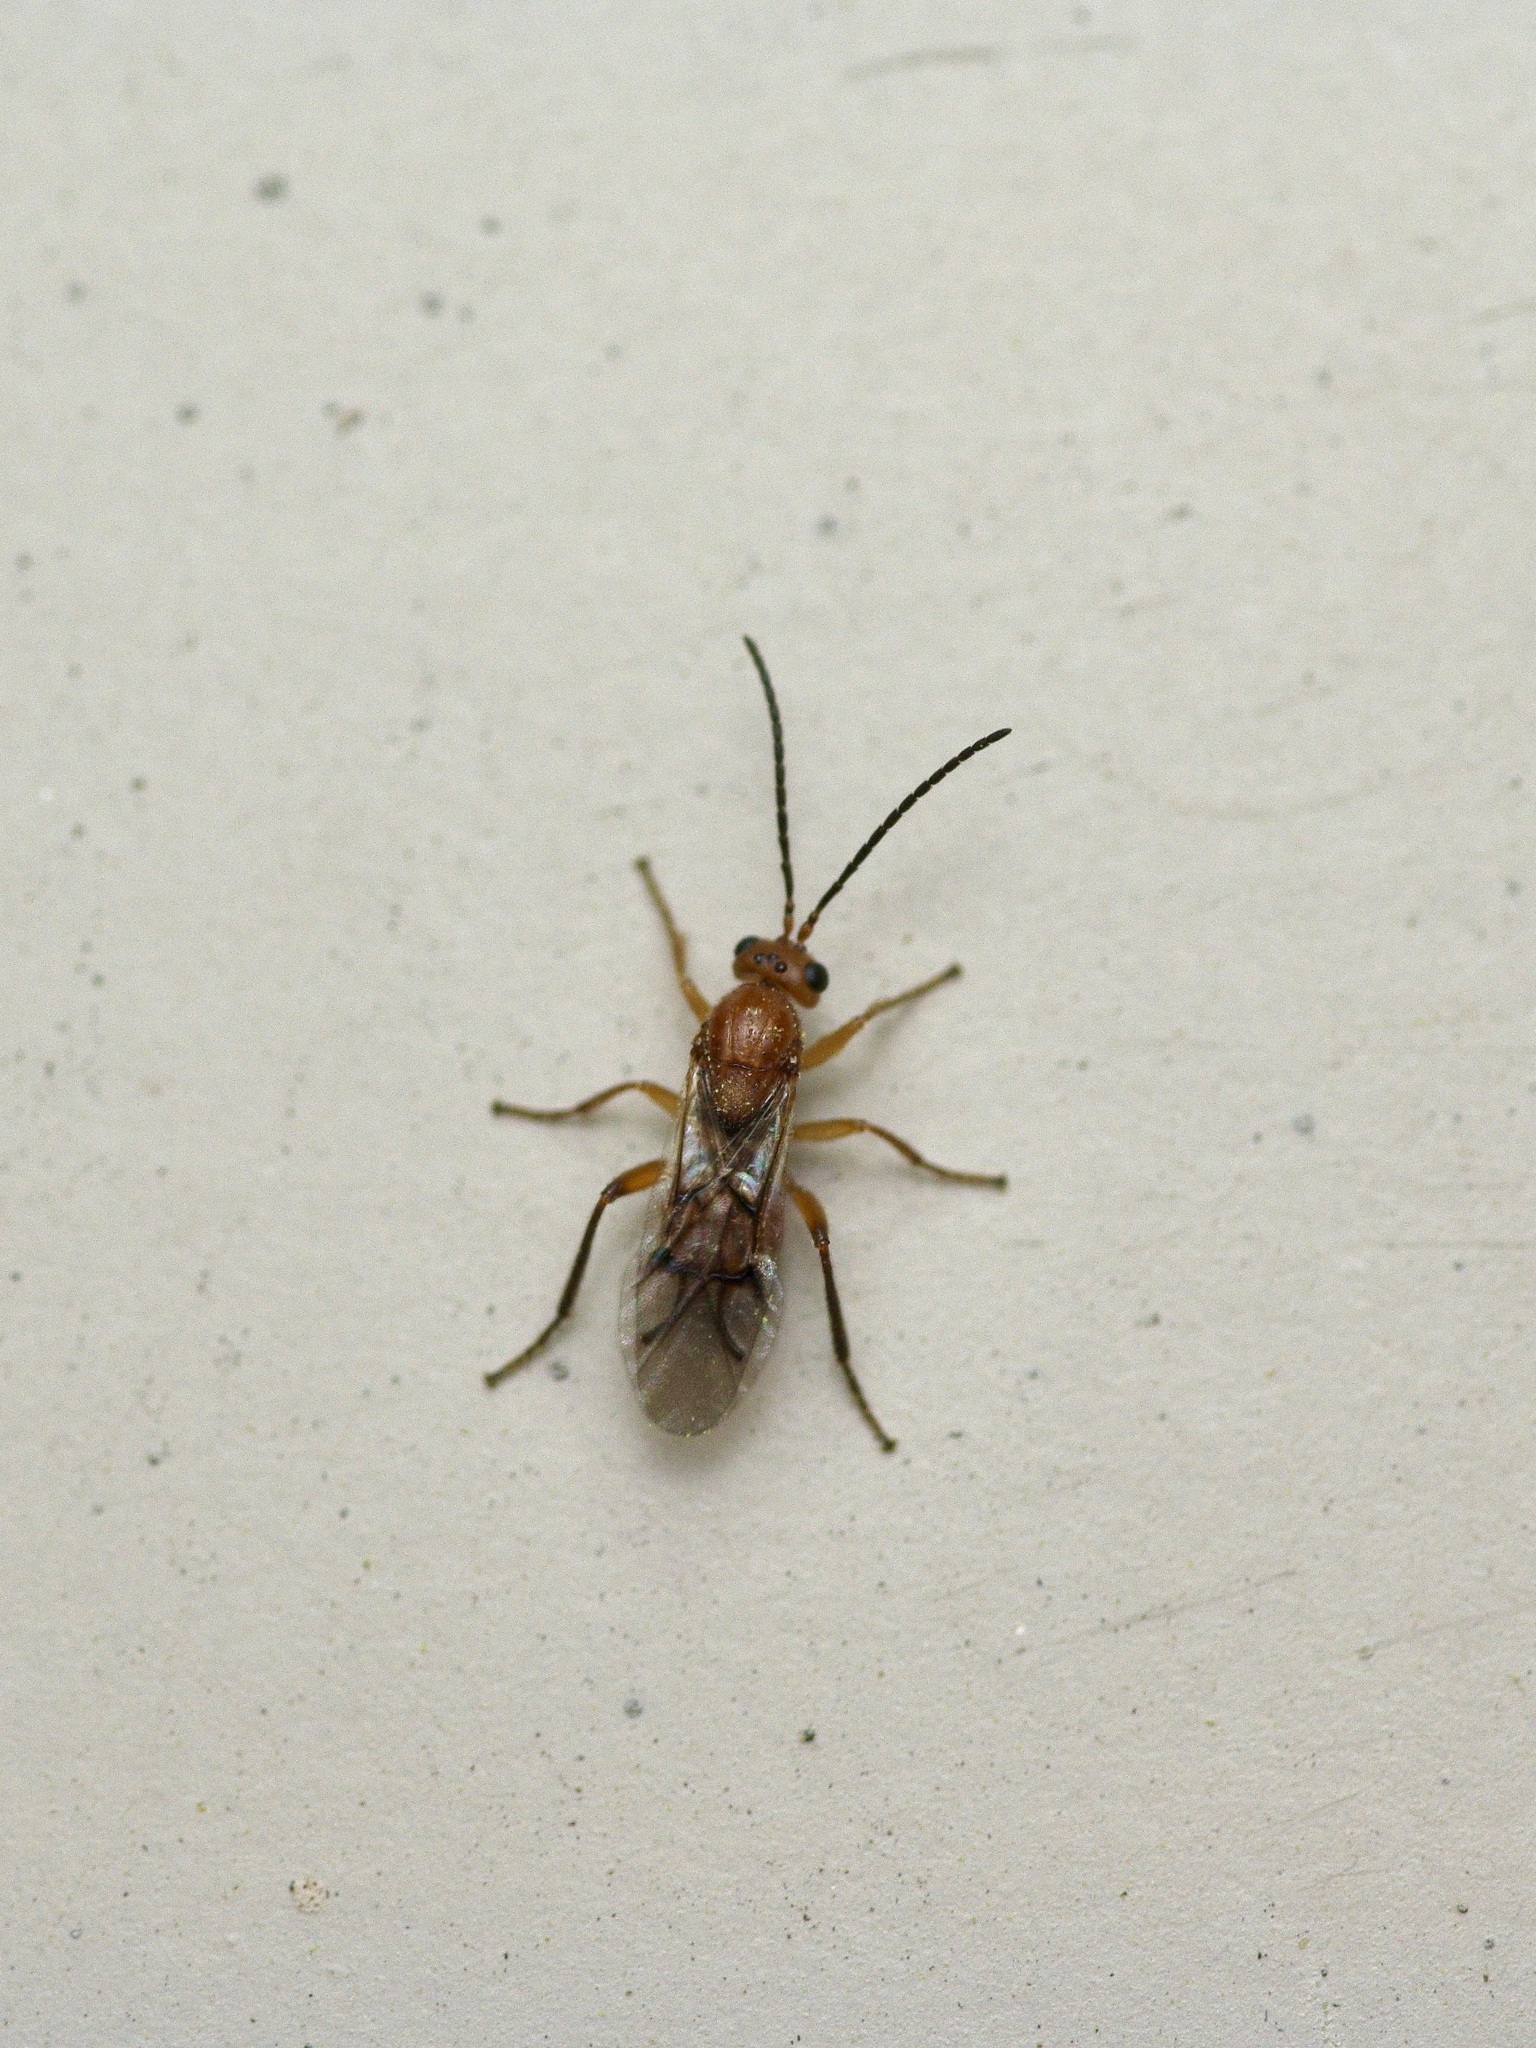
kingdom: Animalia
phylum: Arthropoda
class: Insecta
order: Hymenoptera
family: Cynipidae
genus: Belonocnema
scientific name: Belonocnema kinseyi
